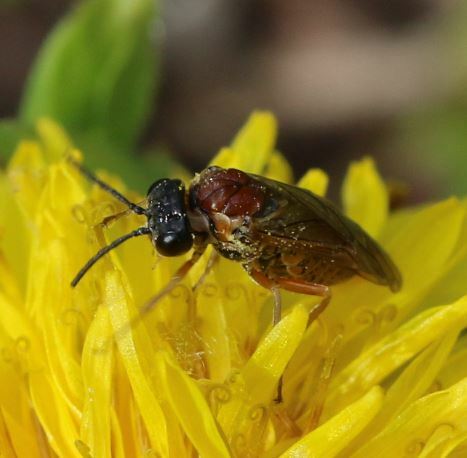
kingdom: Animalia
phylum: Arthropoda
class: Insecta
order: Hymenoptera
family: Tenthredinidae
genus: Periclista
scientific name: Periclista albida
